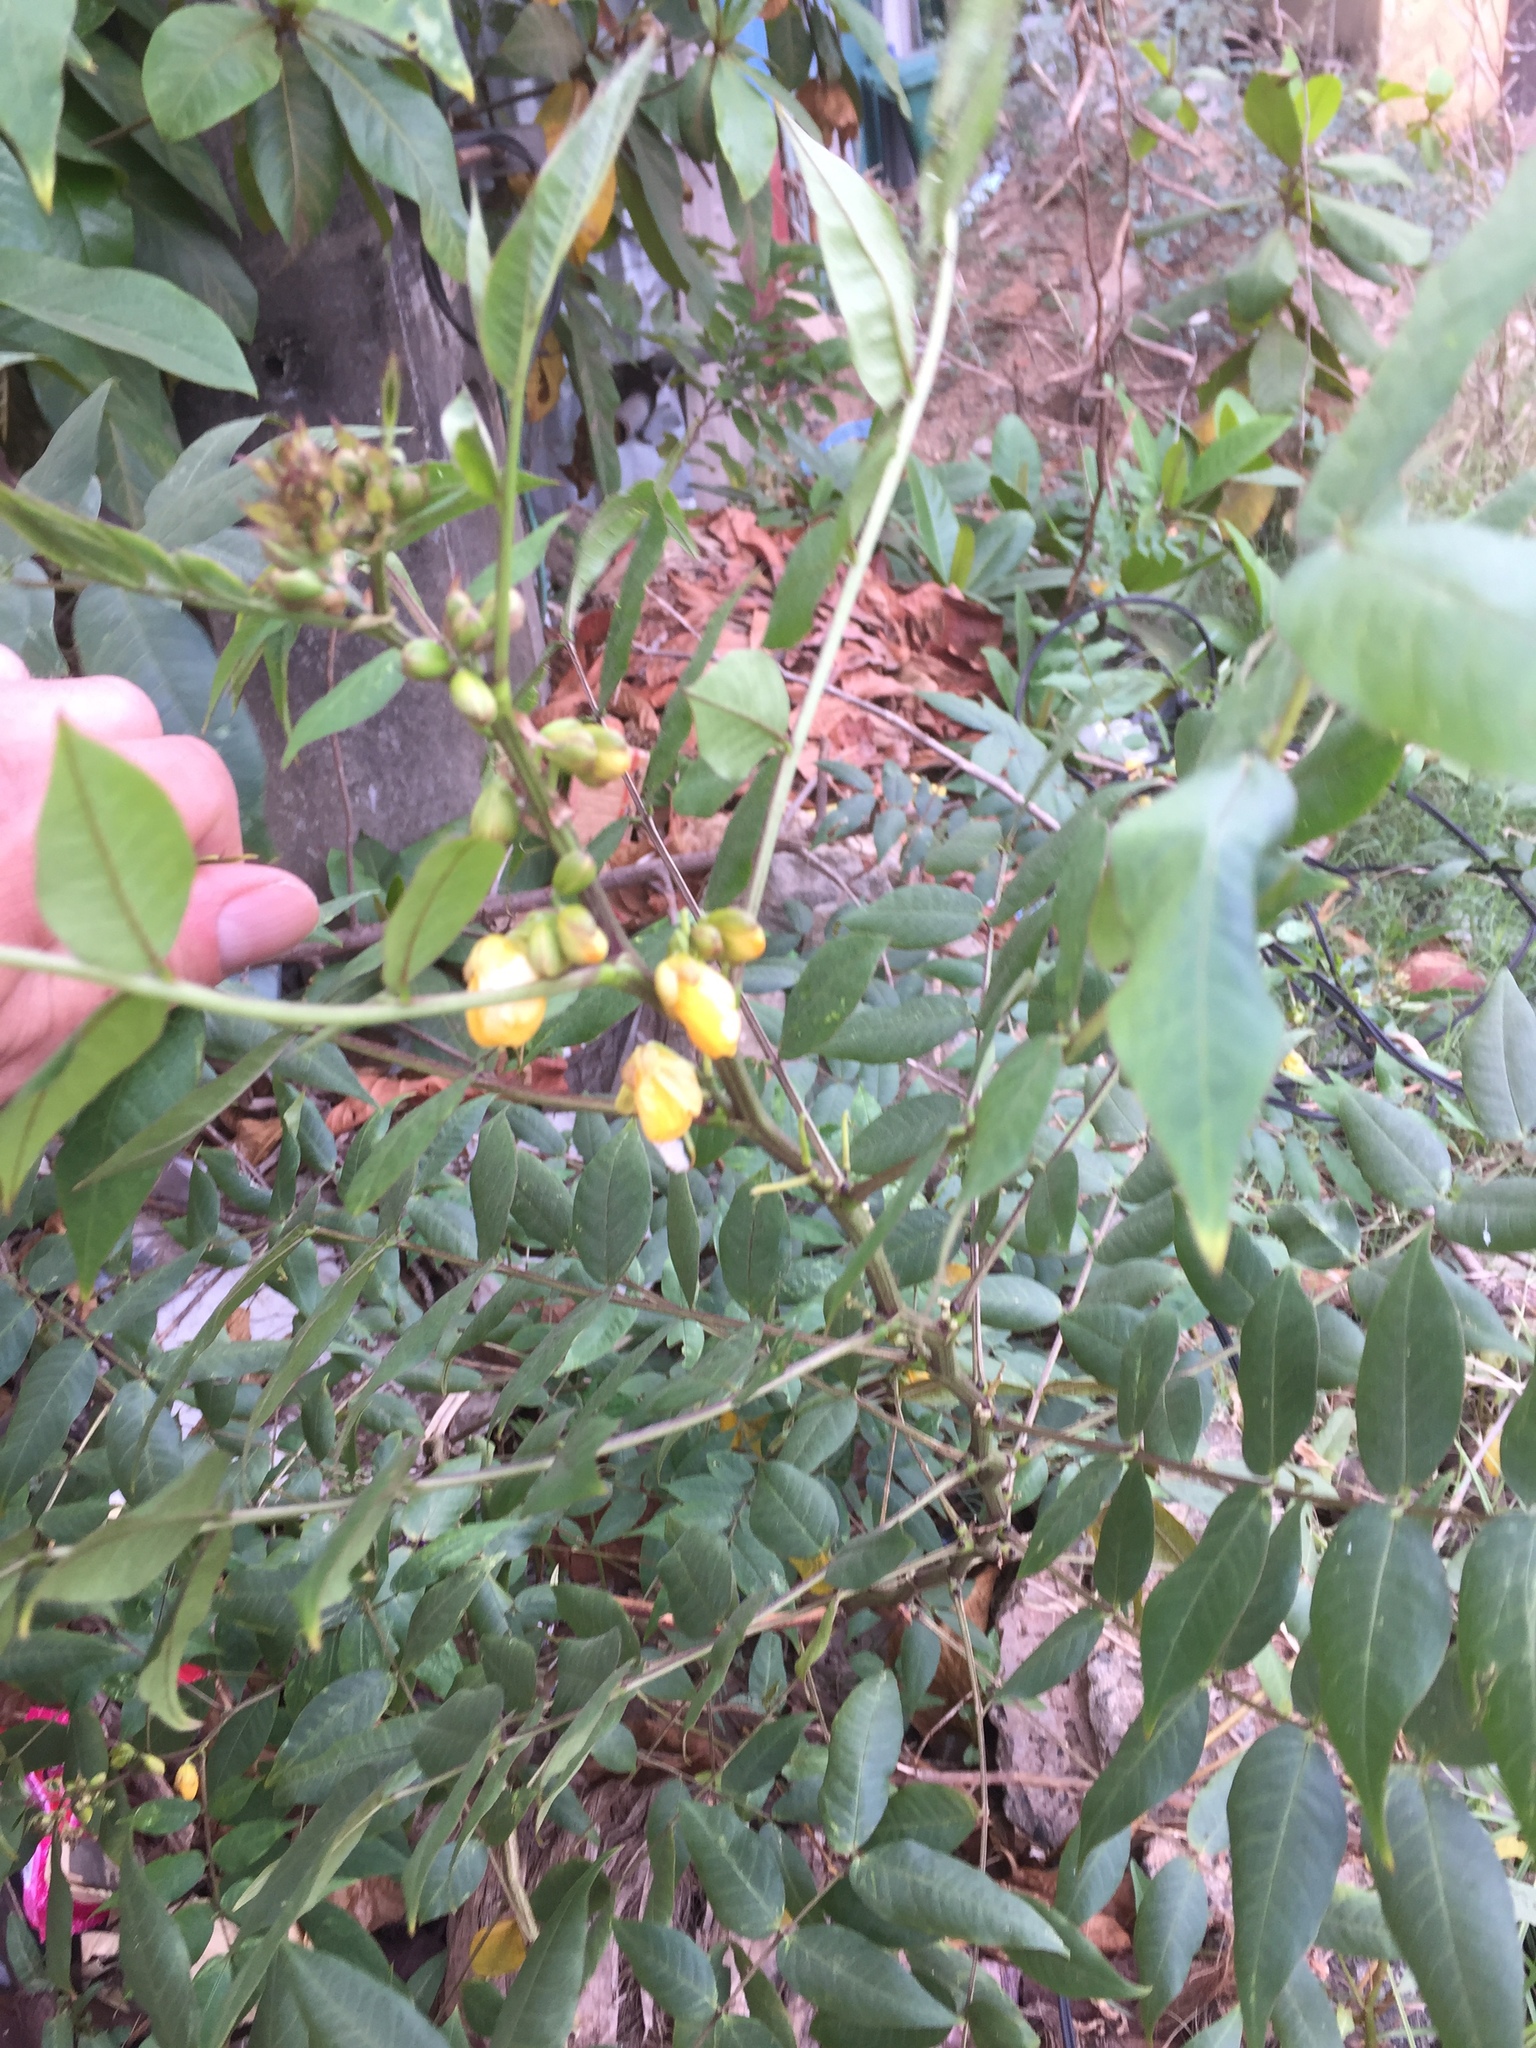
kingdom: Plantae
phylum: Tracheophyta
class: Magnoliopsida
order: Fabales
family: Fabaceae
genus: Senna
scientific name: Senna occidentalis
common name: Septicweed
